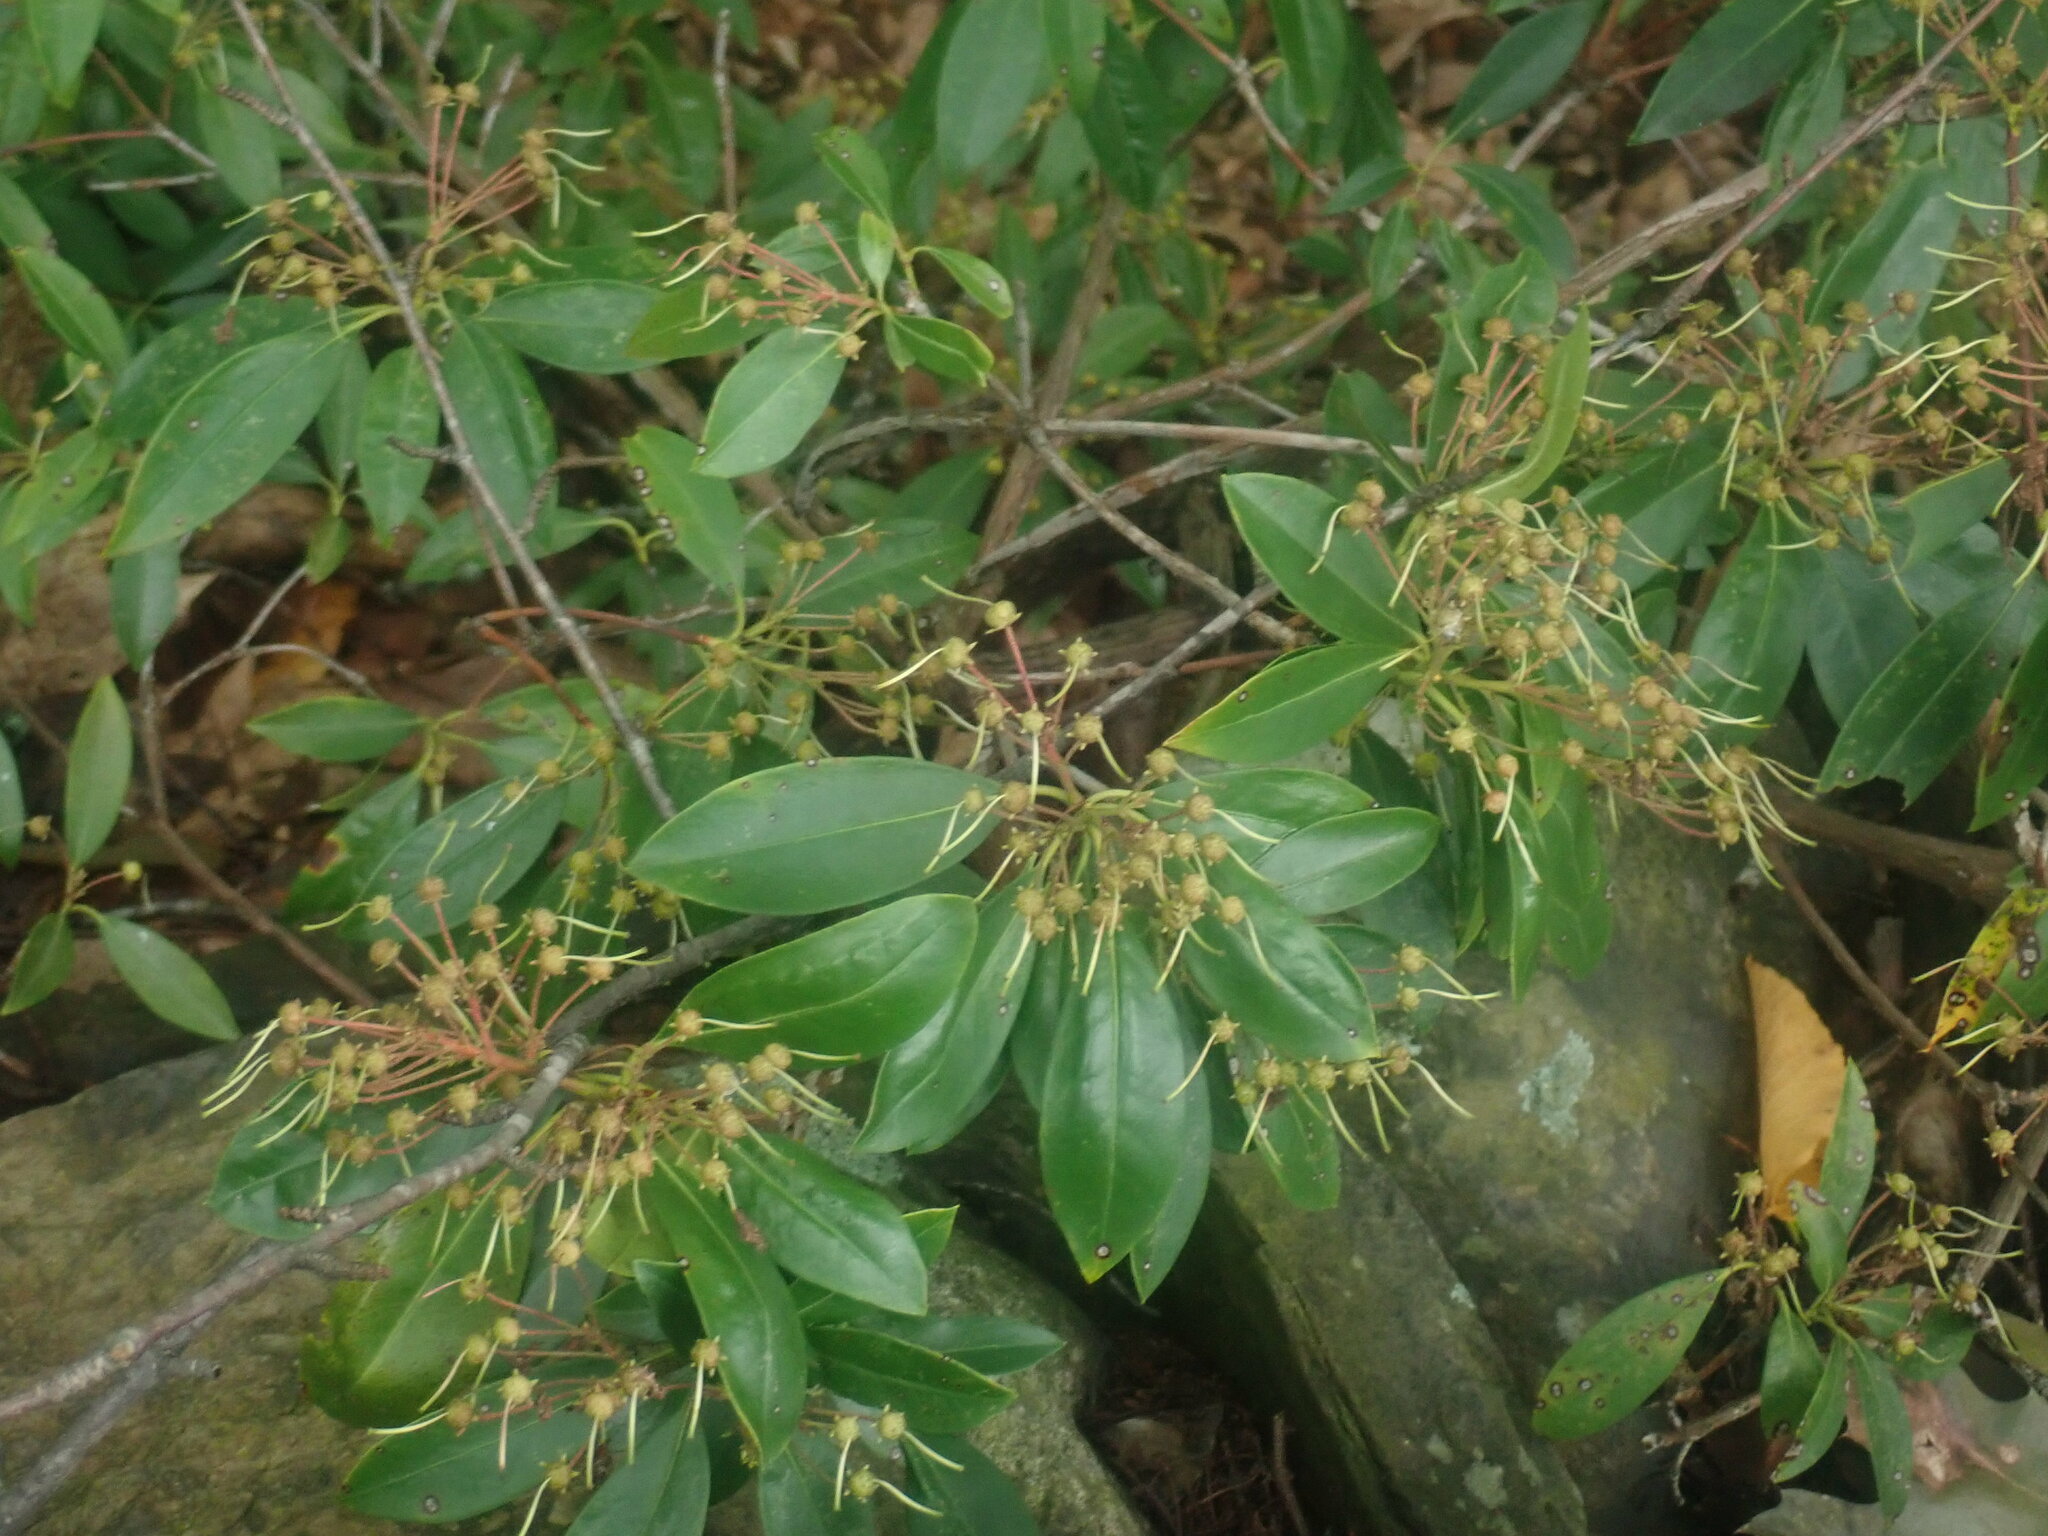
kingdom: Plantae
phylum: Tracheophyta
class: Magnoliopsida
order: Ericales
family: Ericaceae
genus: Kalmia
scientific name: Kalmia latifolia
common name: Mountain-laurel
